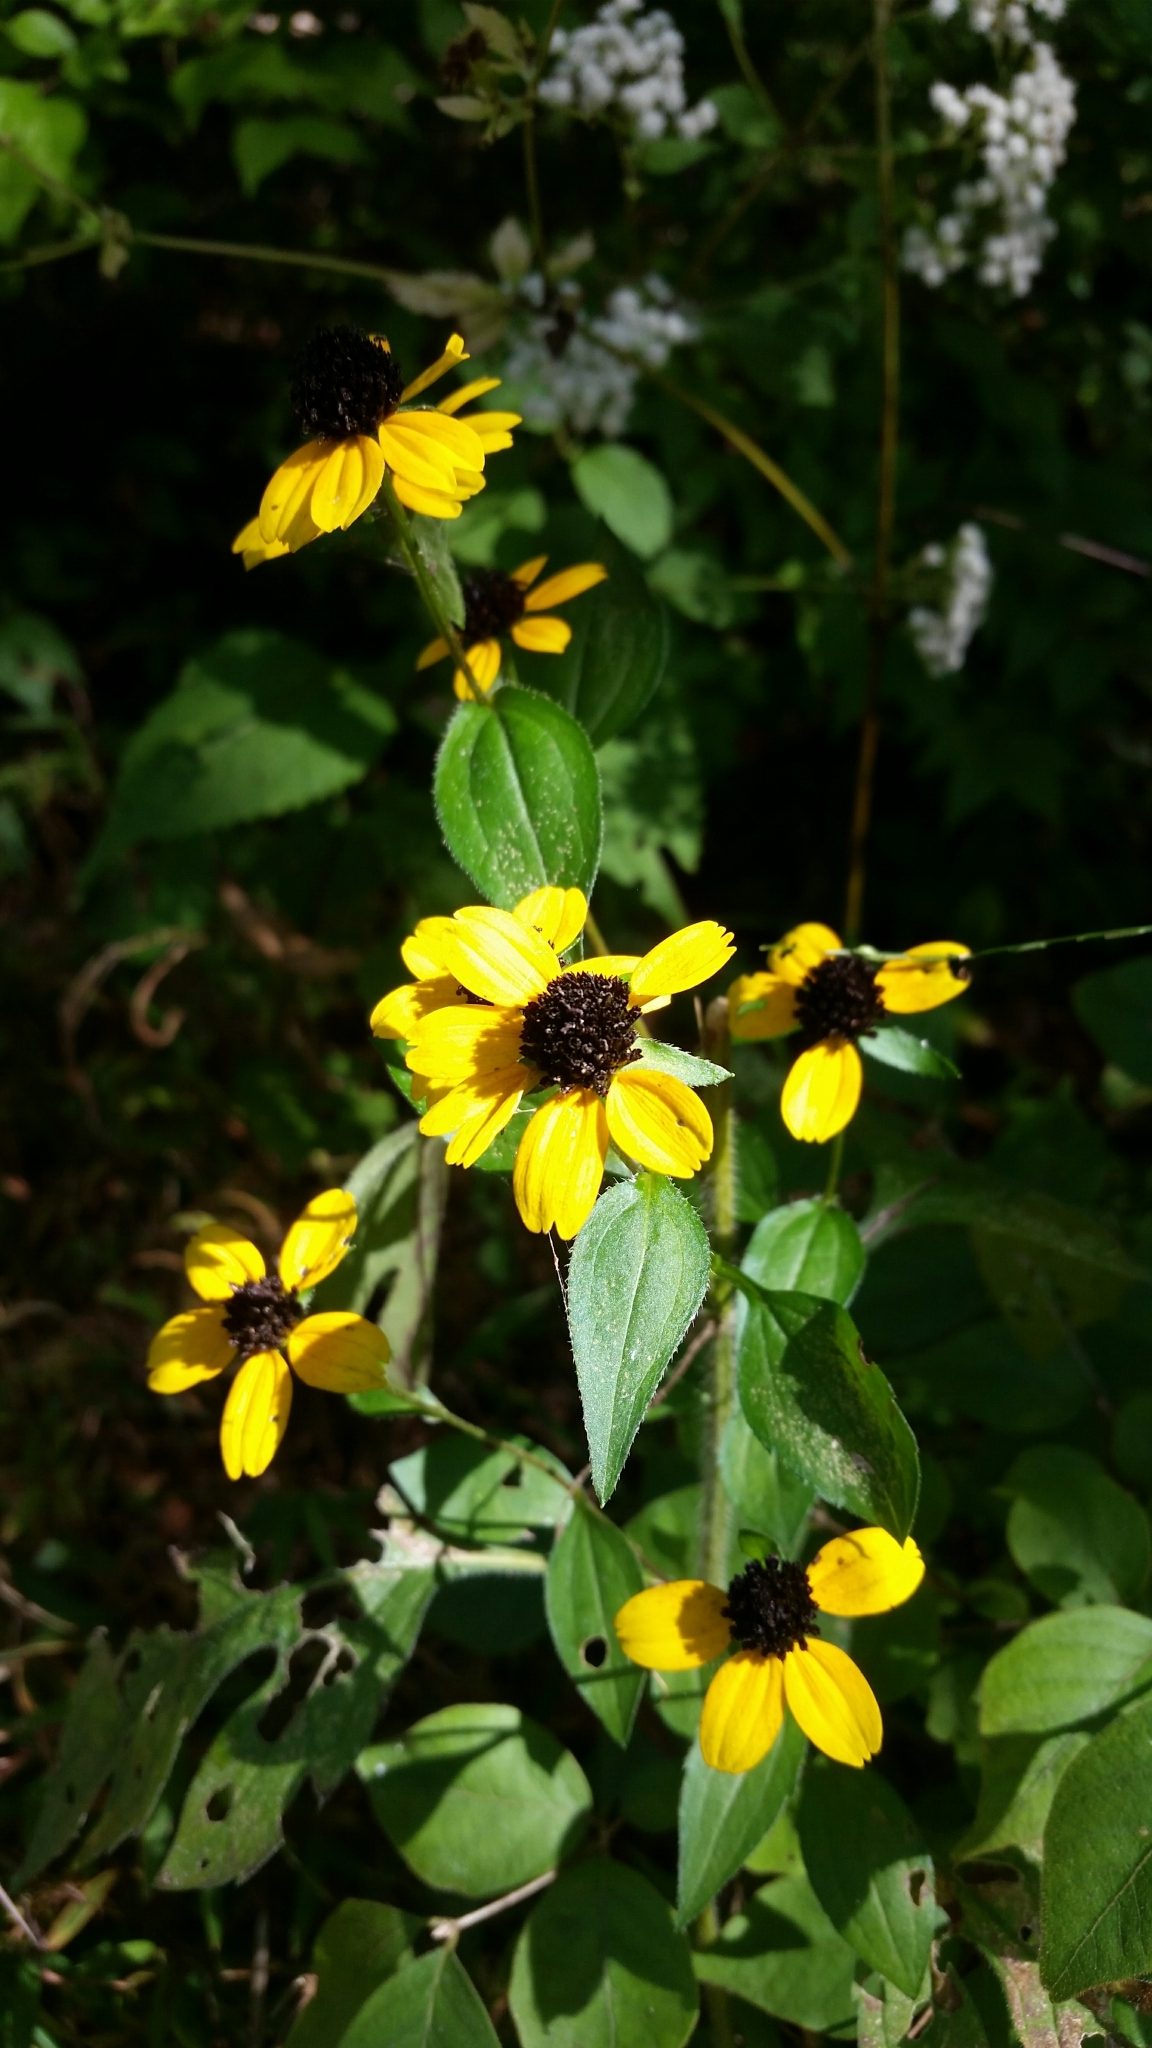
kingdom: Plantae
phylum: Tracheophyta
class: Magnoliopsida
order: Asterales
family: Asteraceae
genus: Rudbeckia
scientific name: Rudbeckia triloba
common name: Thin-leaved coneflower
